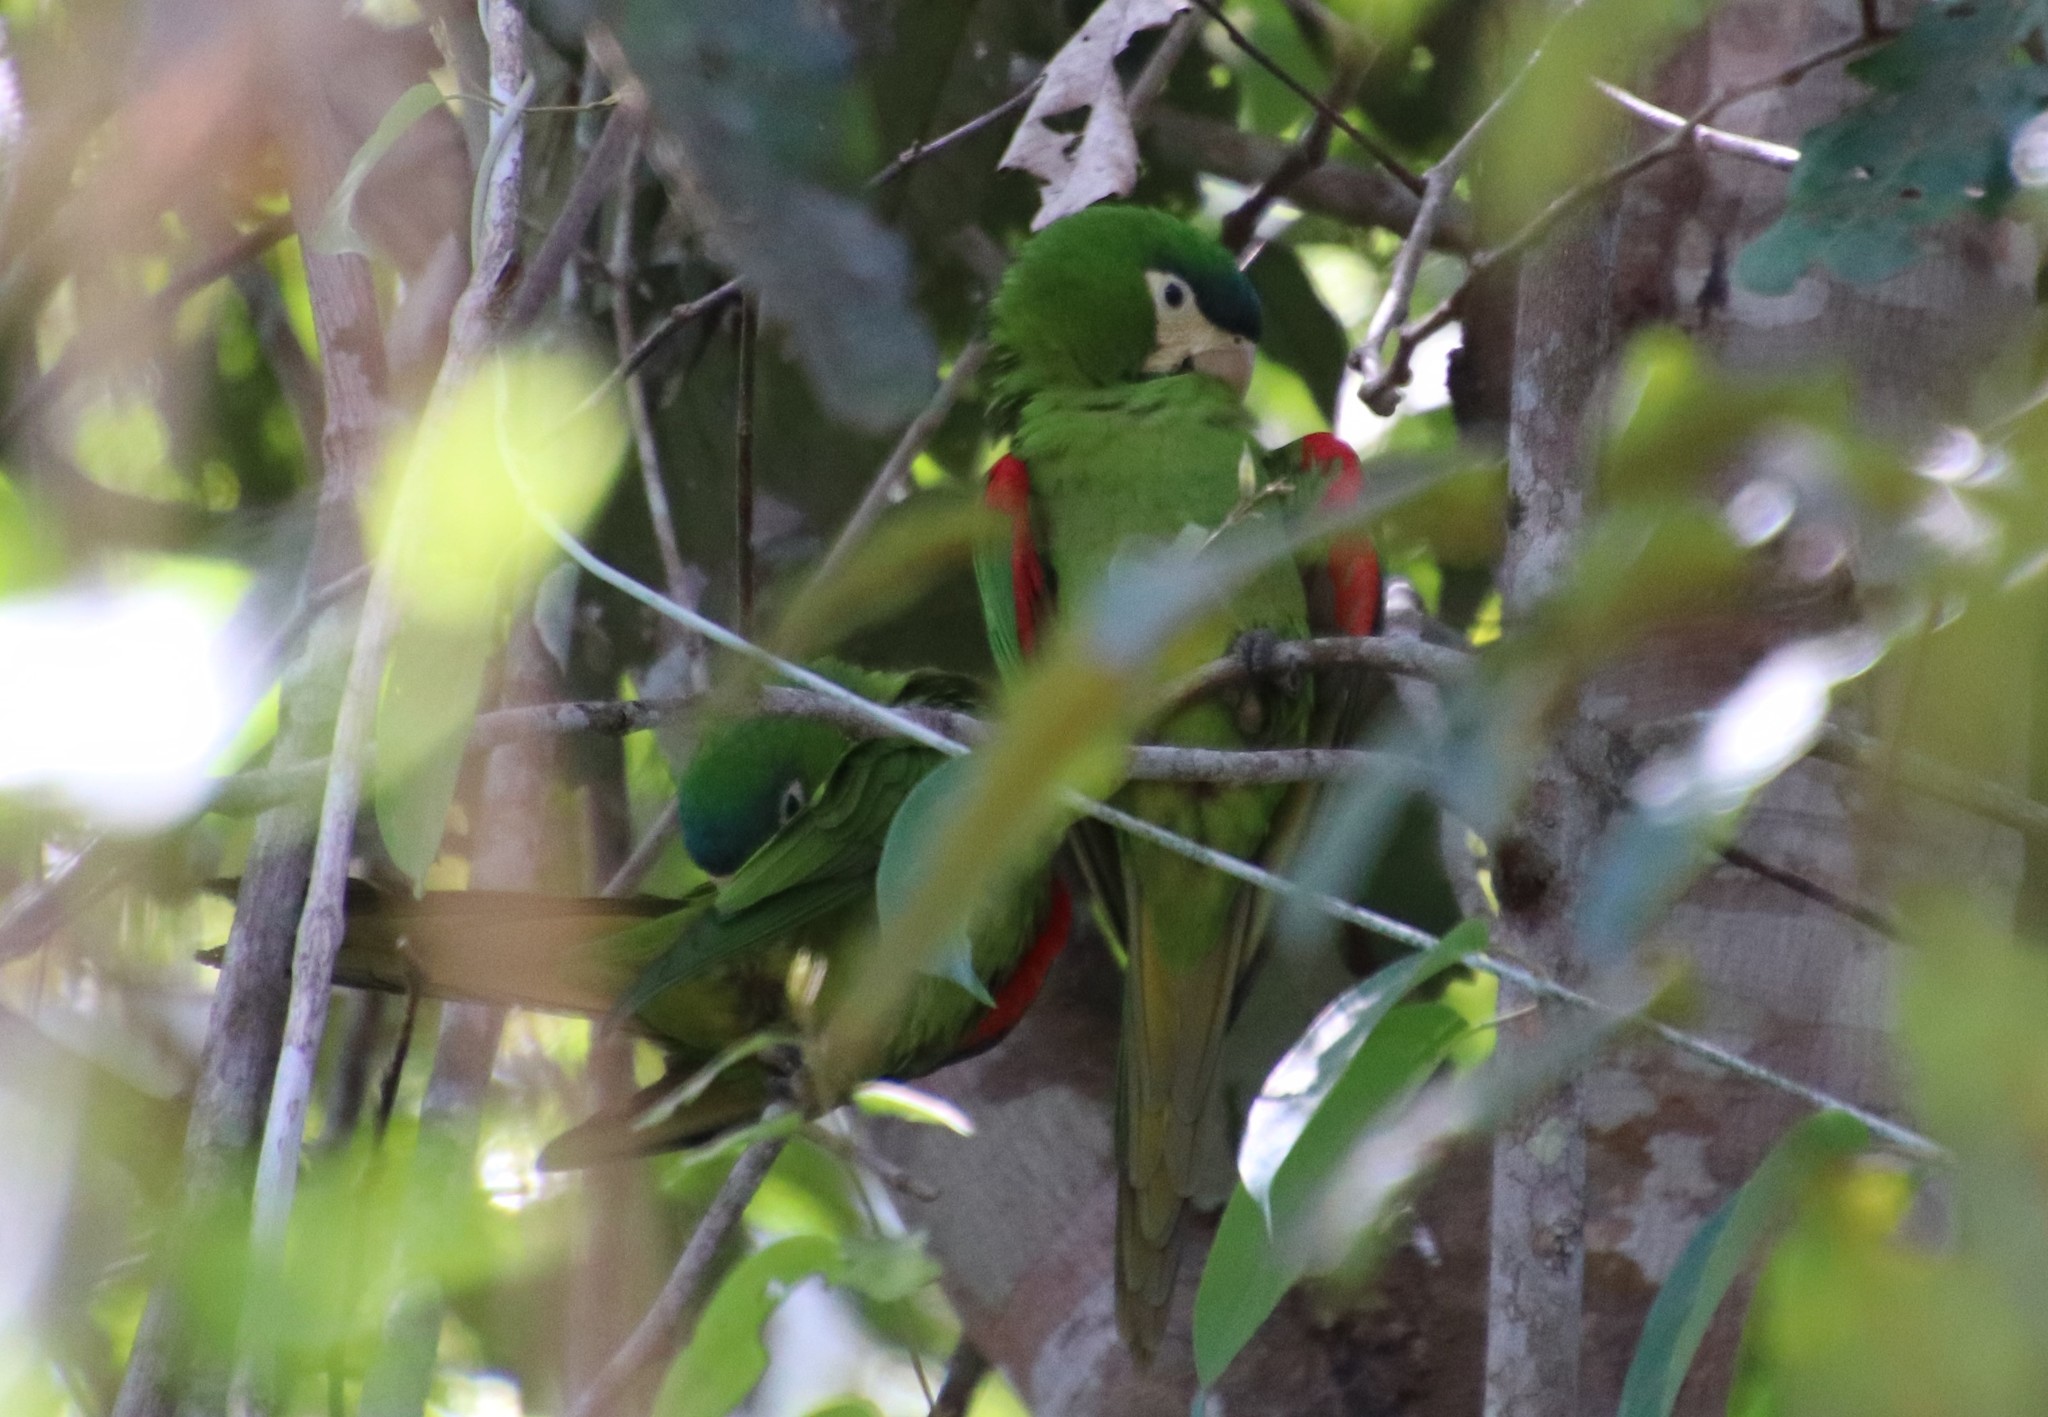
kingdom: Animalia
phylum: Chordata
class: Aves
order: Psittaciformes
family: Psittacidae
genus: Diopsittaca
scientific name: Diopsittaca nobilis
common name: Red-shouldered macaw
